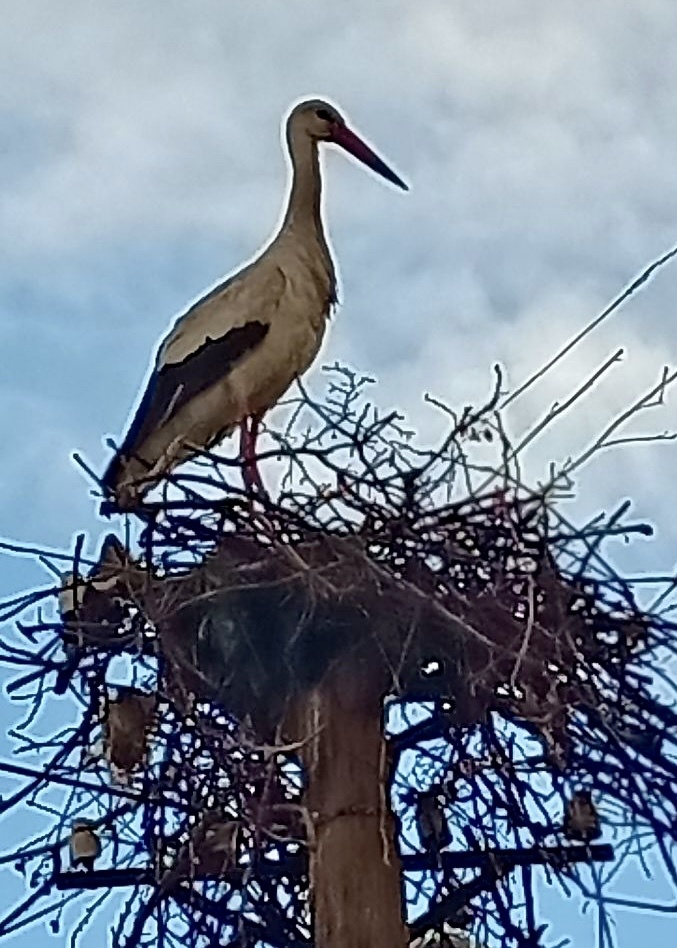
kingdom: Animalia
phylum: Chordata
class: Aves
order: Ciconiiformes
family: Ciconiidae
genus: Ciconia
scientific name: Ciconia ciconia
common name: White stork
